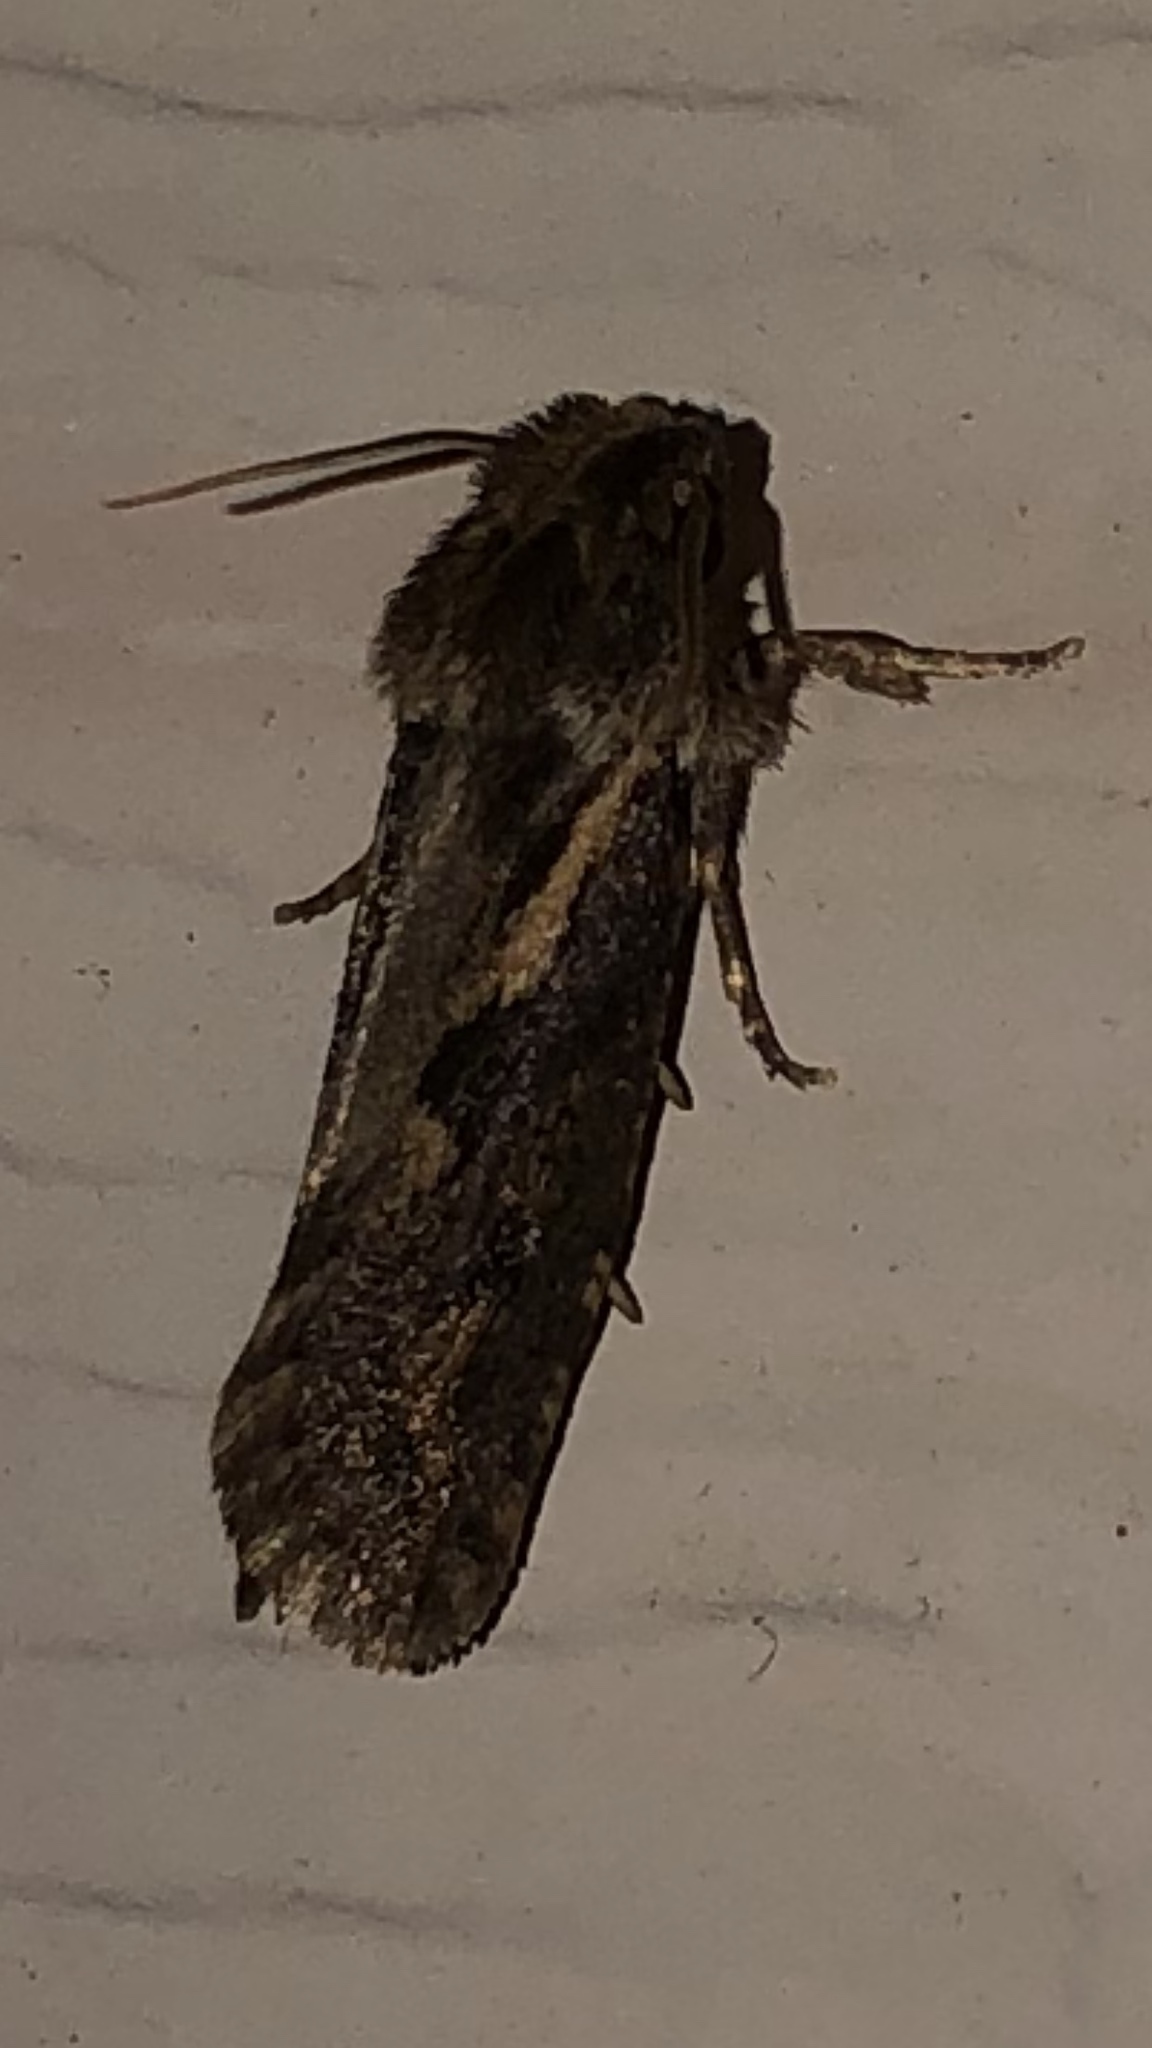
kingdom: Animalia
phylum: Arthropoda
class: Insecta
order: Lepidoptera
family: Tineidae
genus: Acrolophus
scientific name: Acrolophus popeanella
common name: Clemens' grass tubeworm moth
